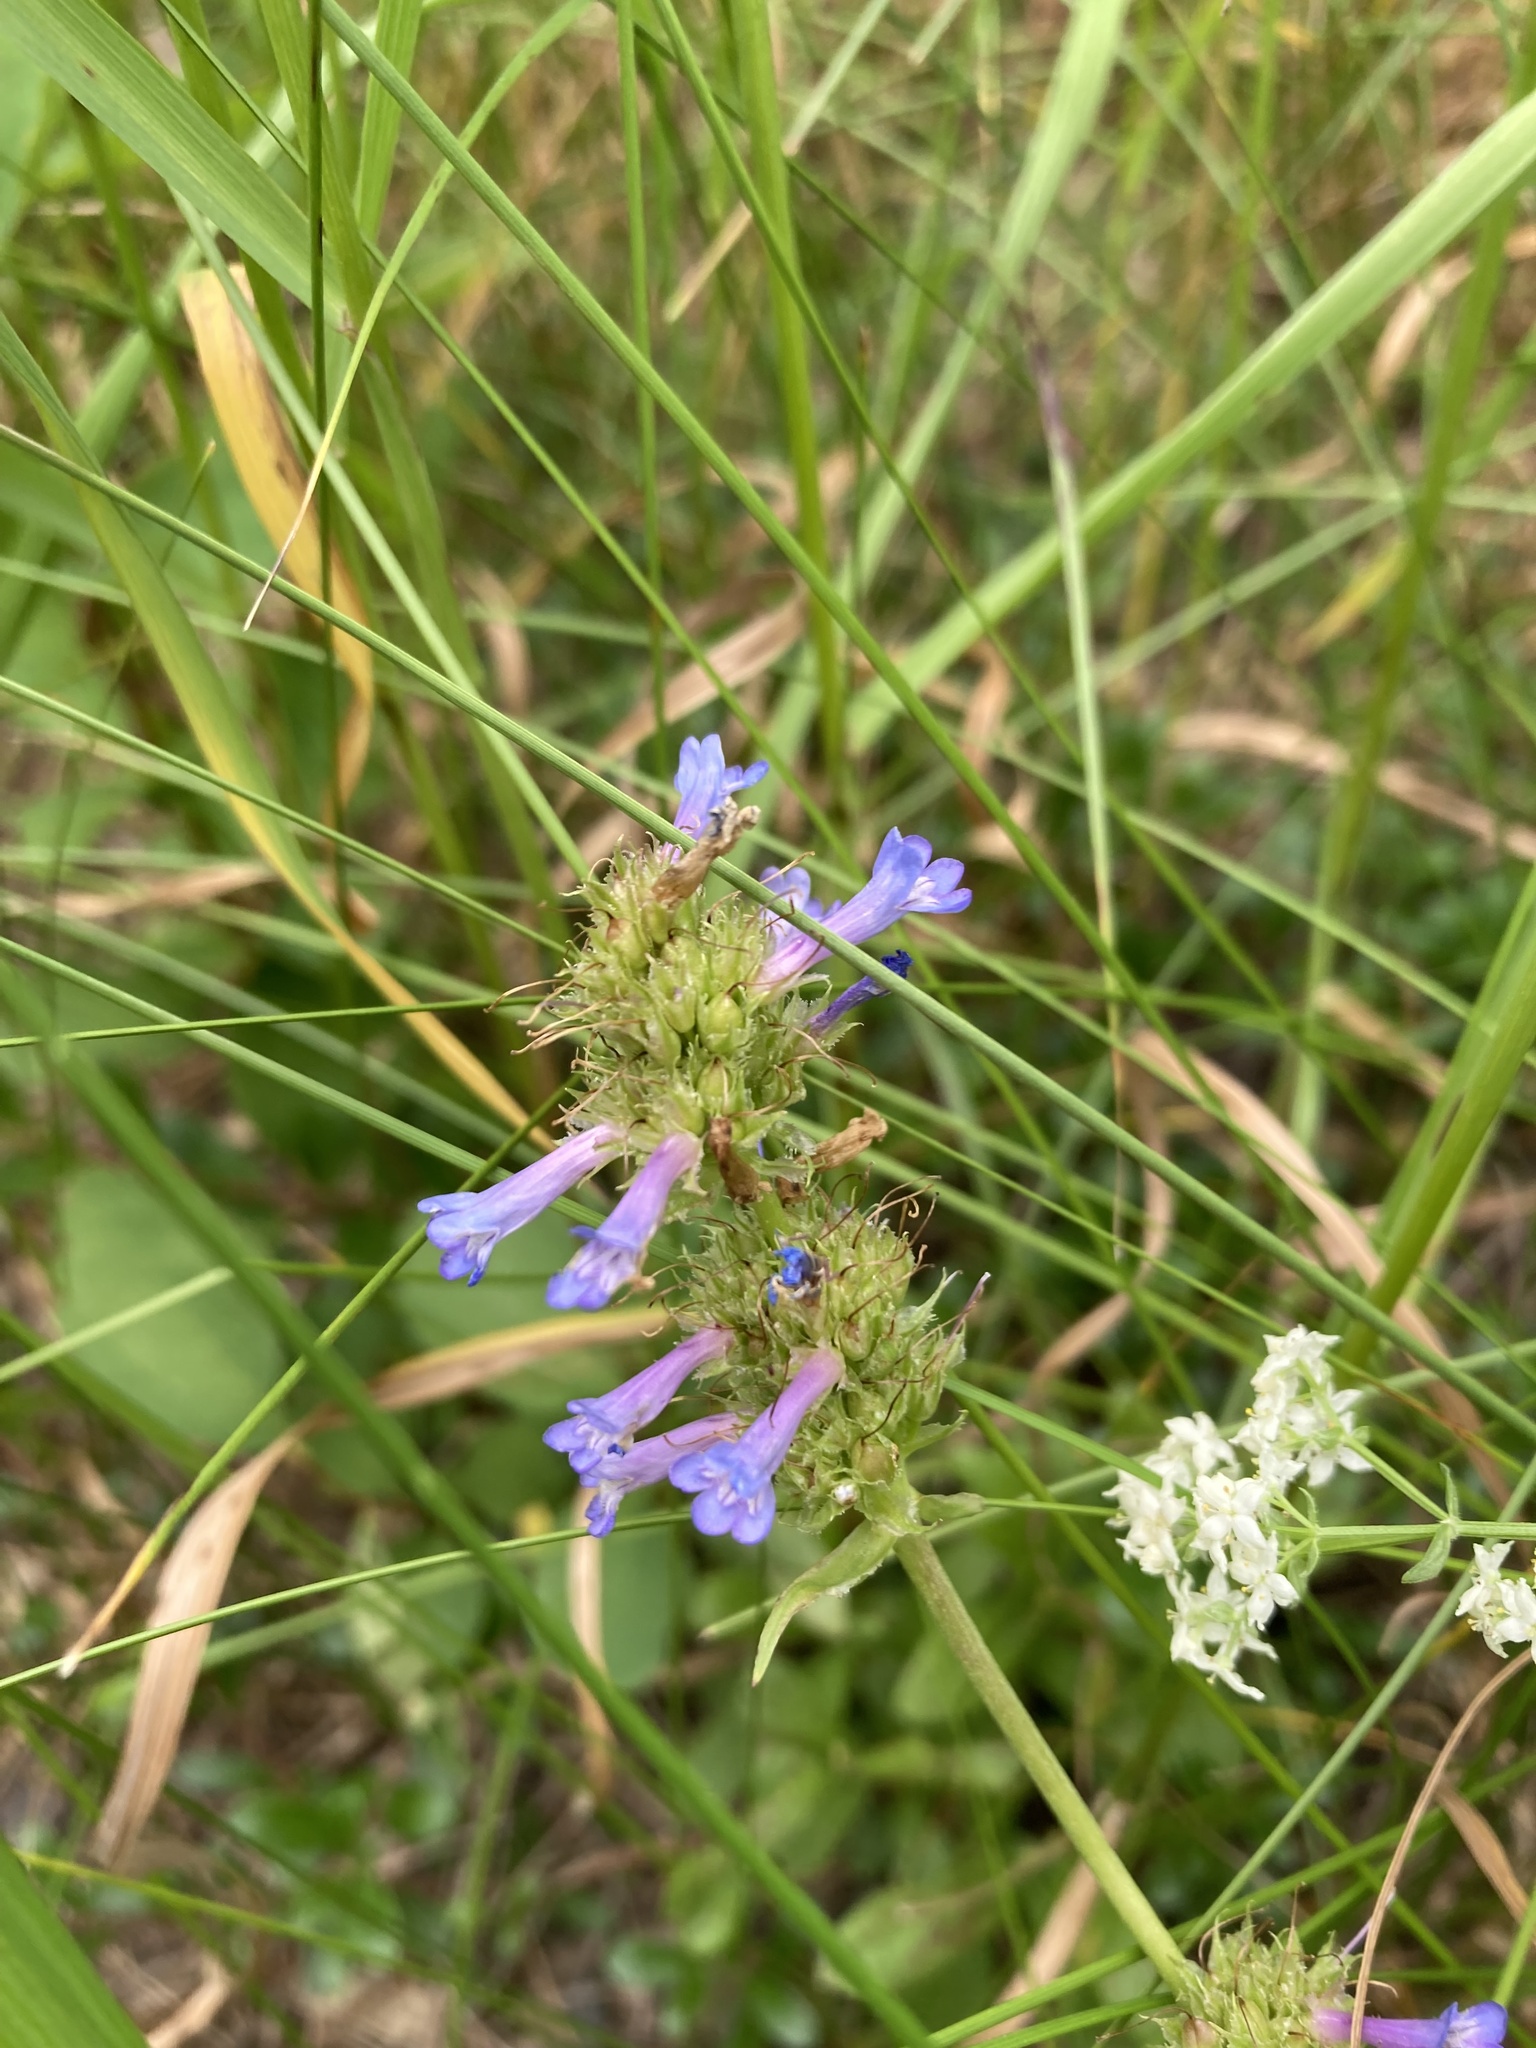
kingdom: Plantae
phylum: Tracheophyta
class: Magnoliopsida
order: Lamiales
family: Plantaginaceae
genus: Penstemon
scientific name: Penstemon procerus
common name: Small-flower penstemon
